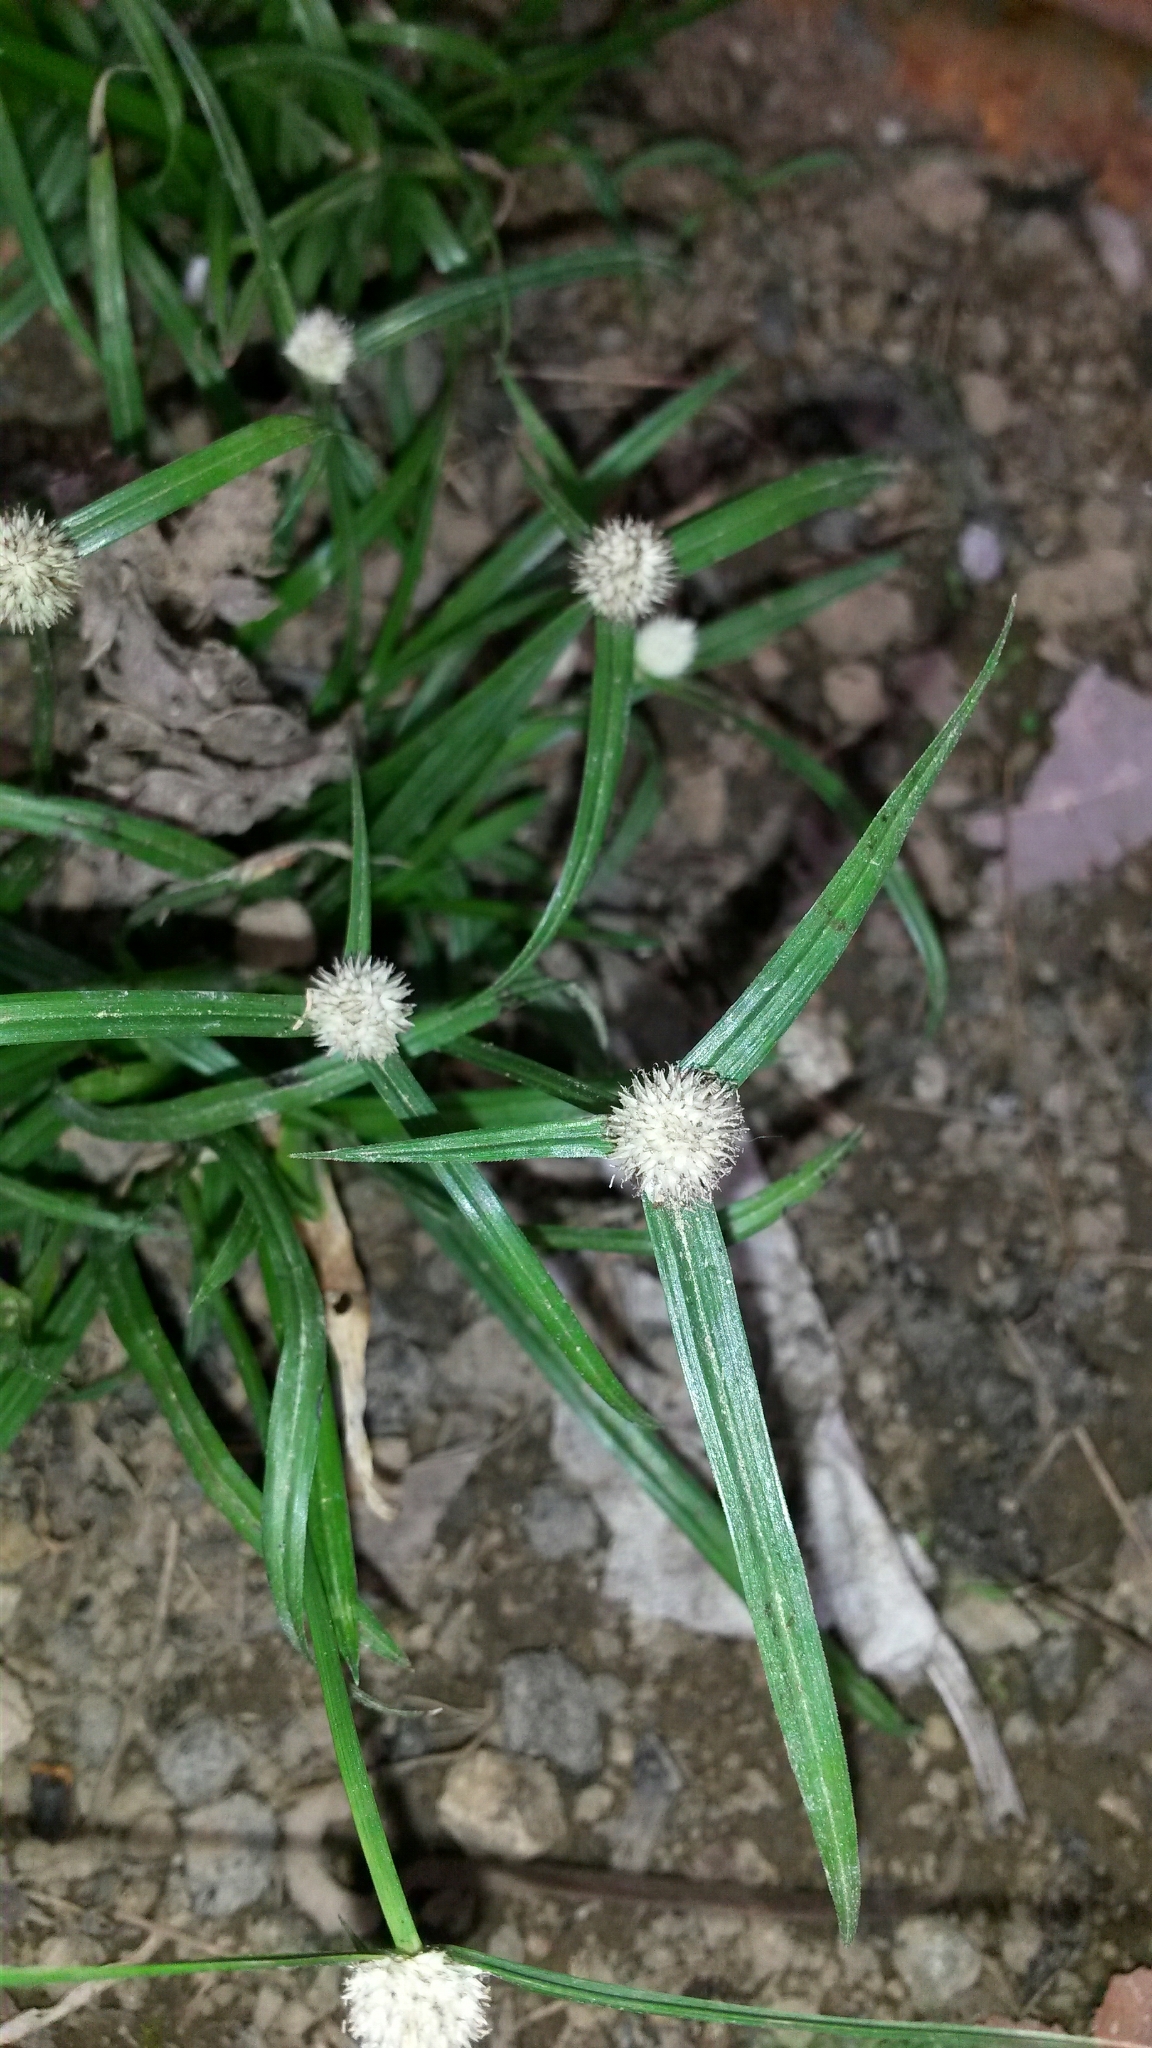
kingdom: Plantae
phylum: Tracheophyta
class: Liliopsida
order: Poales
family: Cyperaceae
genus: Cyperus
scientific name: Cyperus mindorensis
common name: Flatsedge
